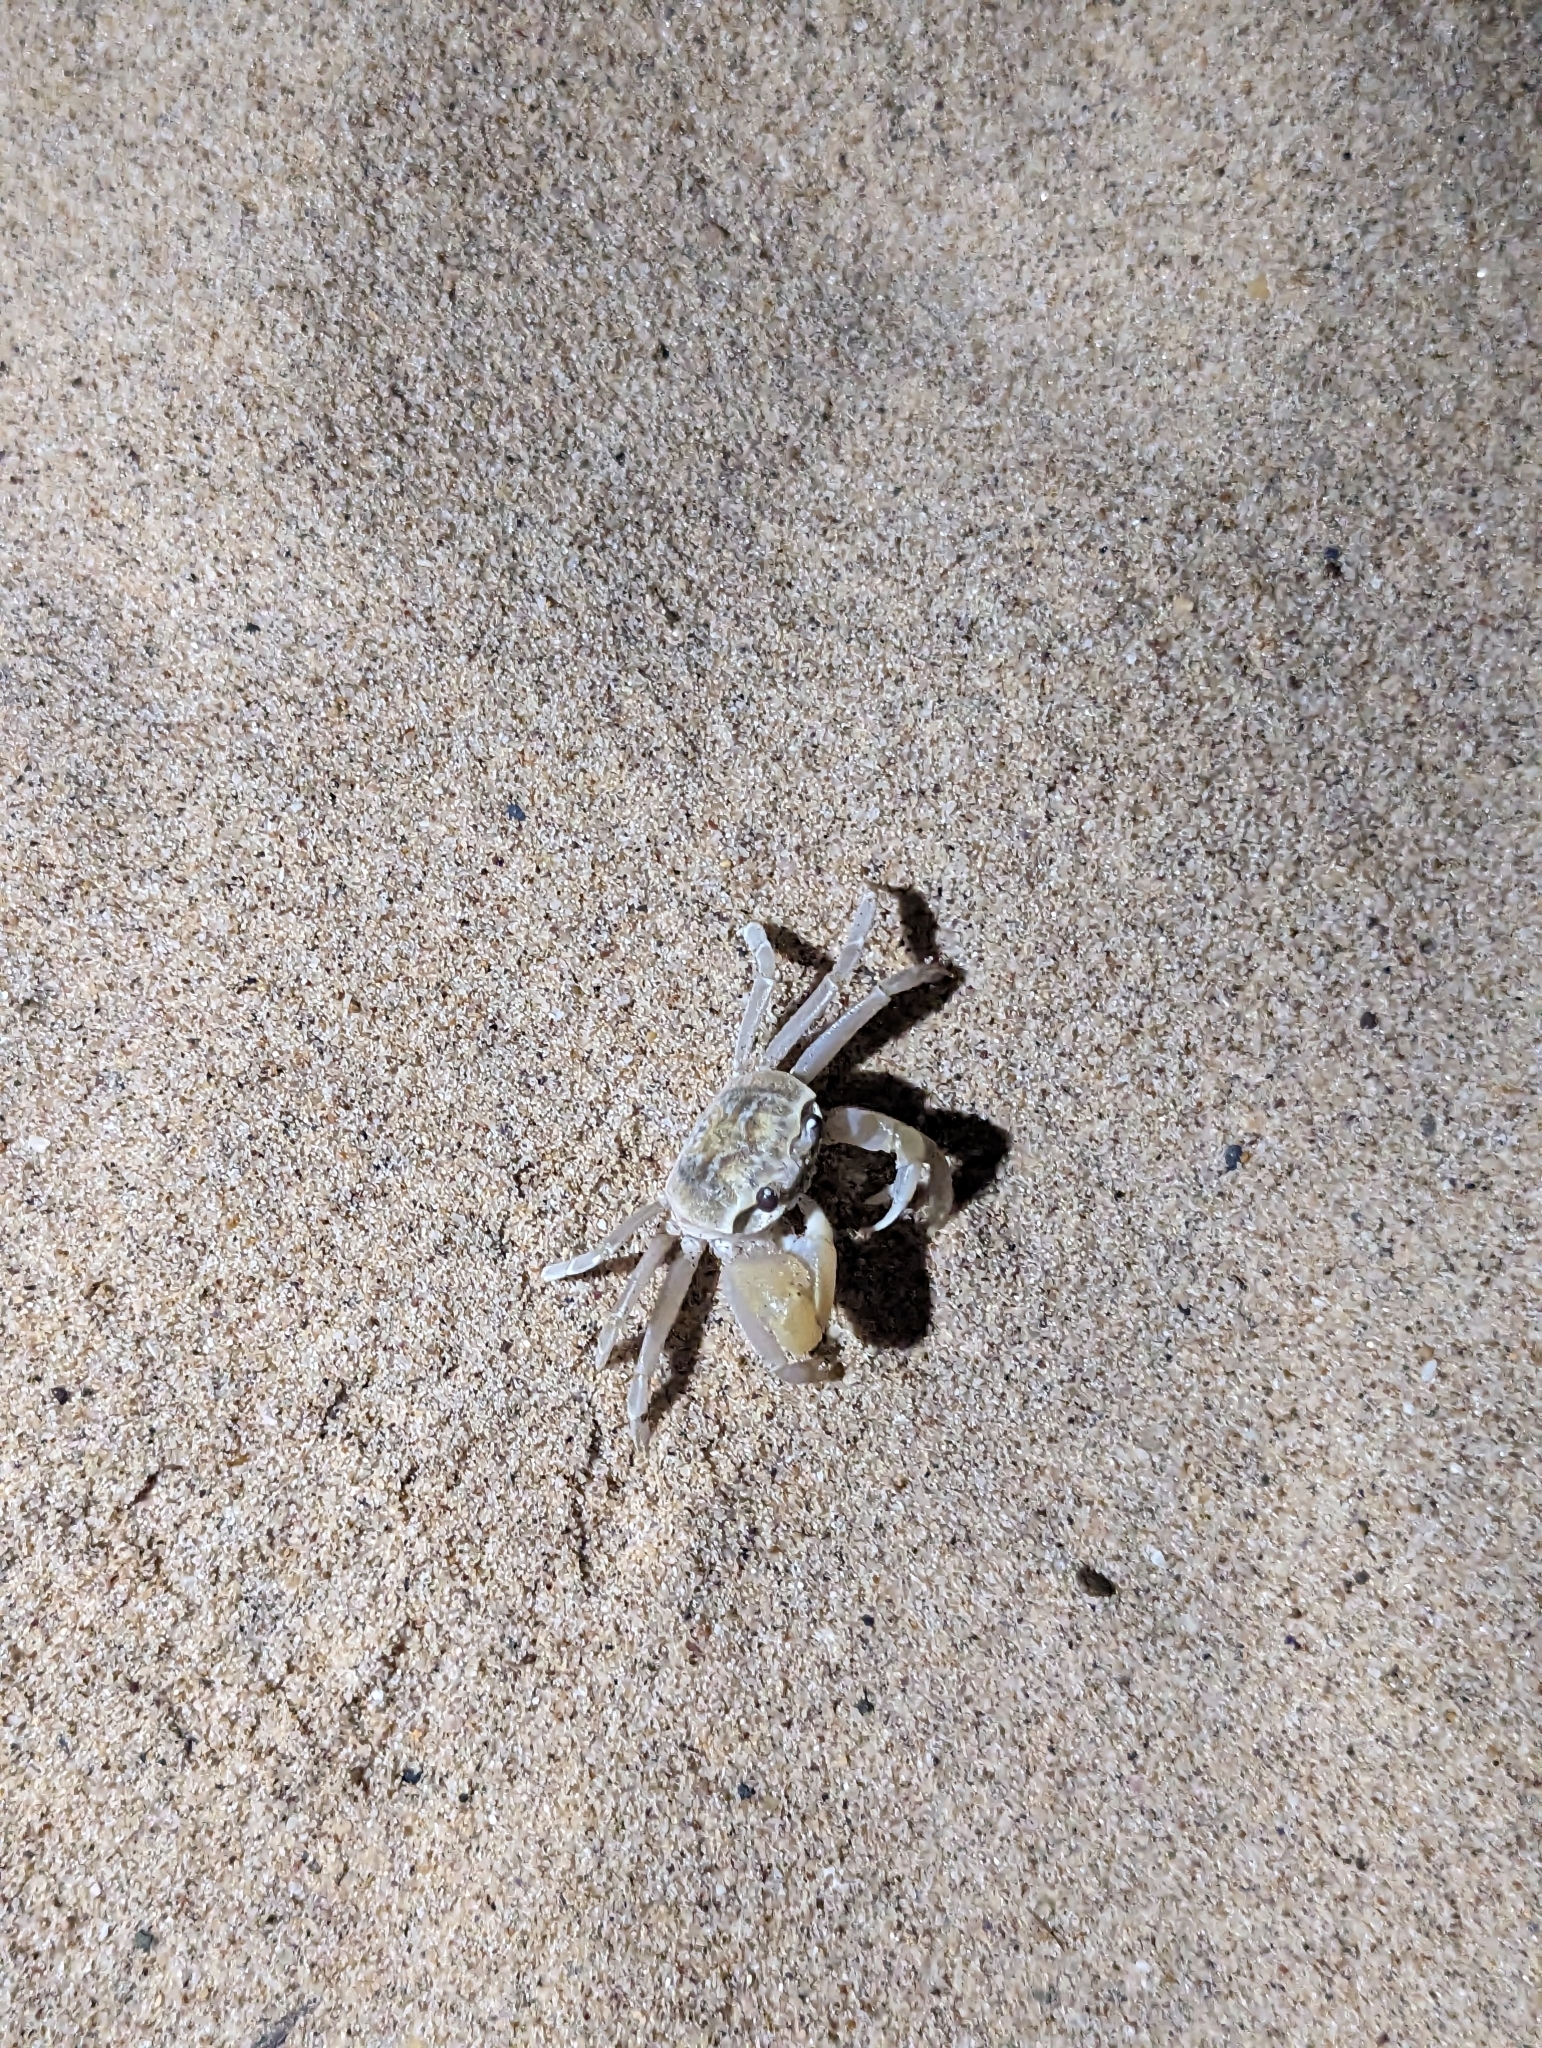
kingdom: Animalia
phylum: Arthropoda
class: Malacostraca
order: Decapoda
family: Ocypodidae
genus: Ocypode
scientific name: Ocypode cordimana
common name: Smooth-eyed ghost crab
